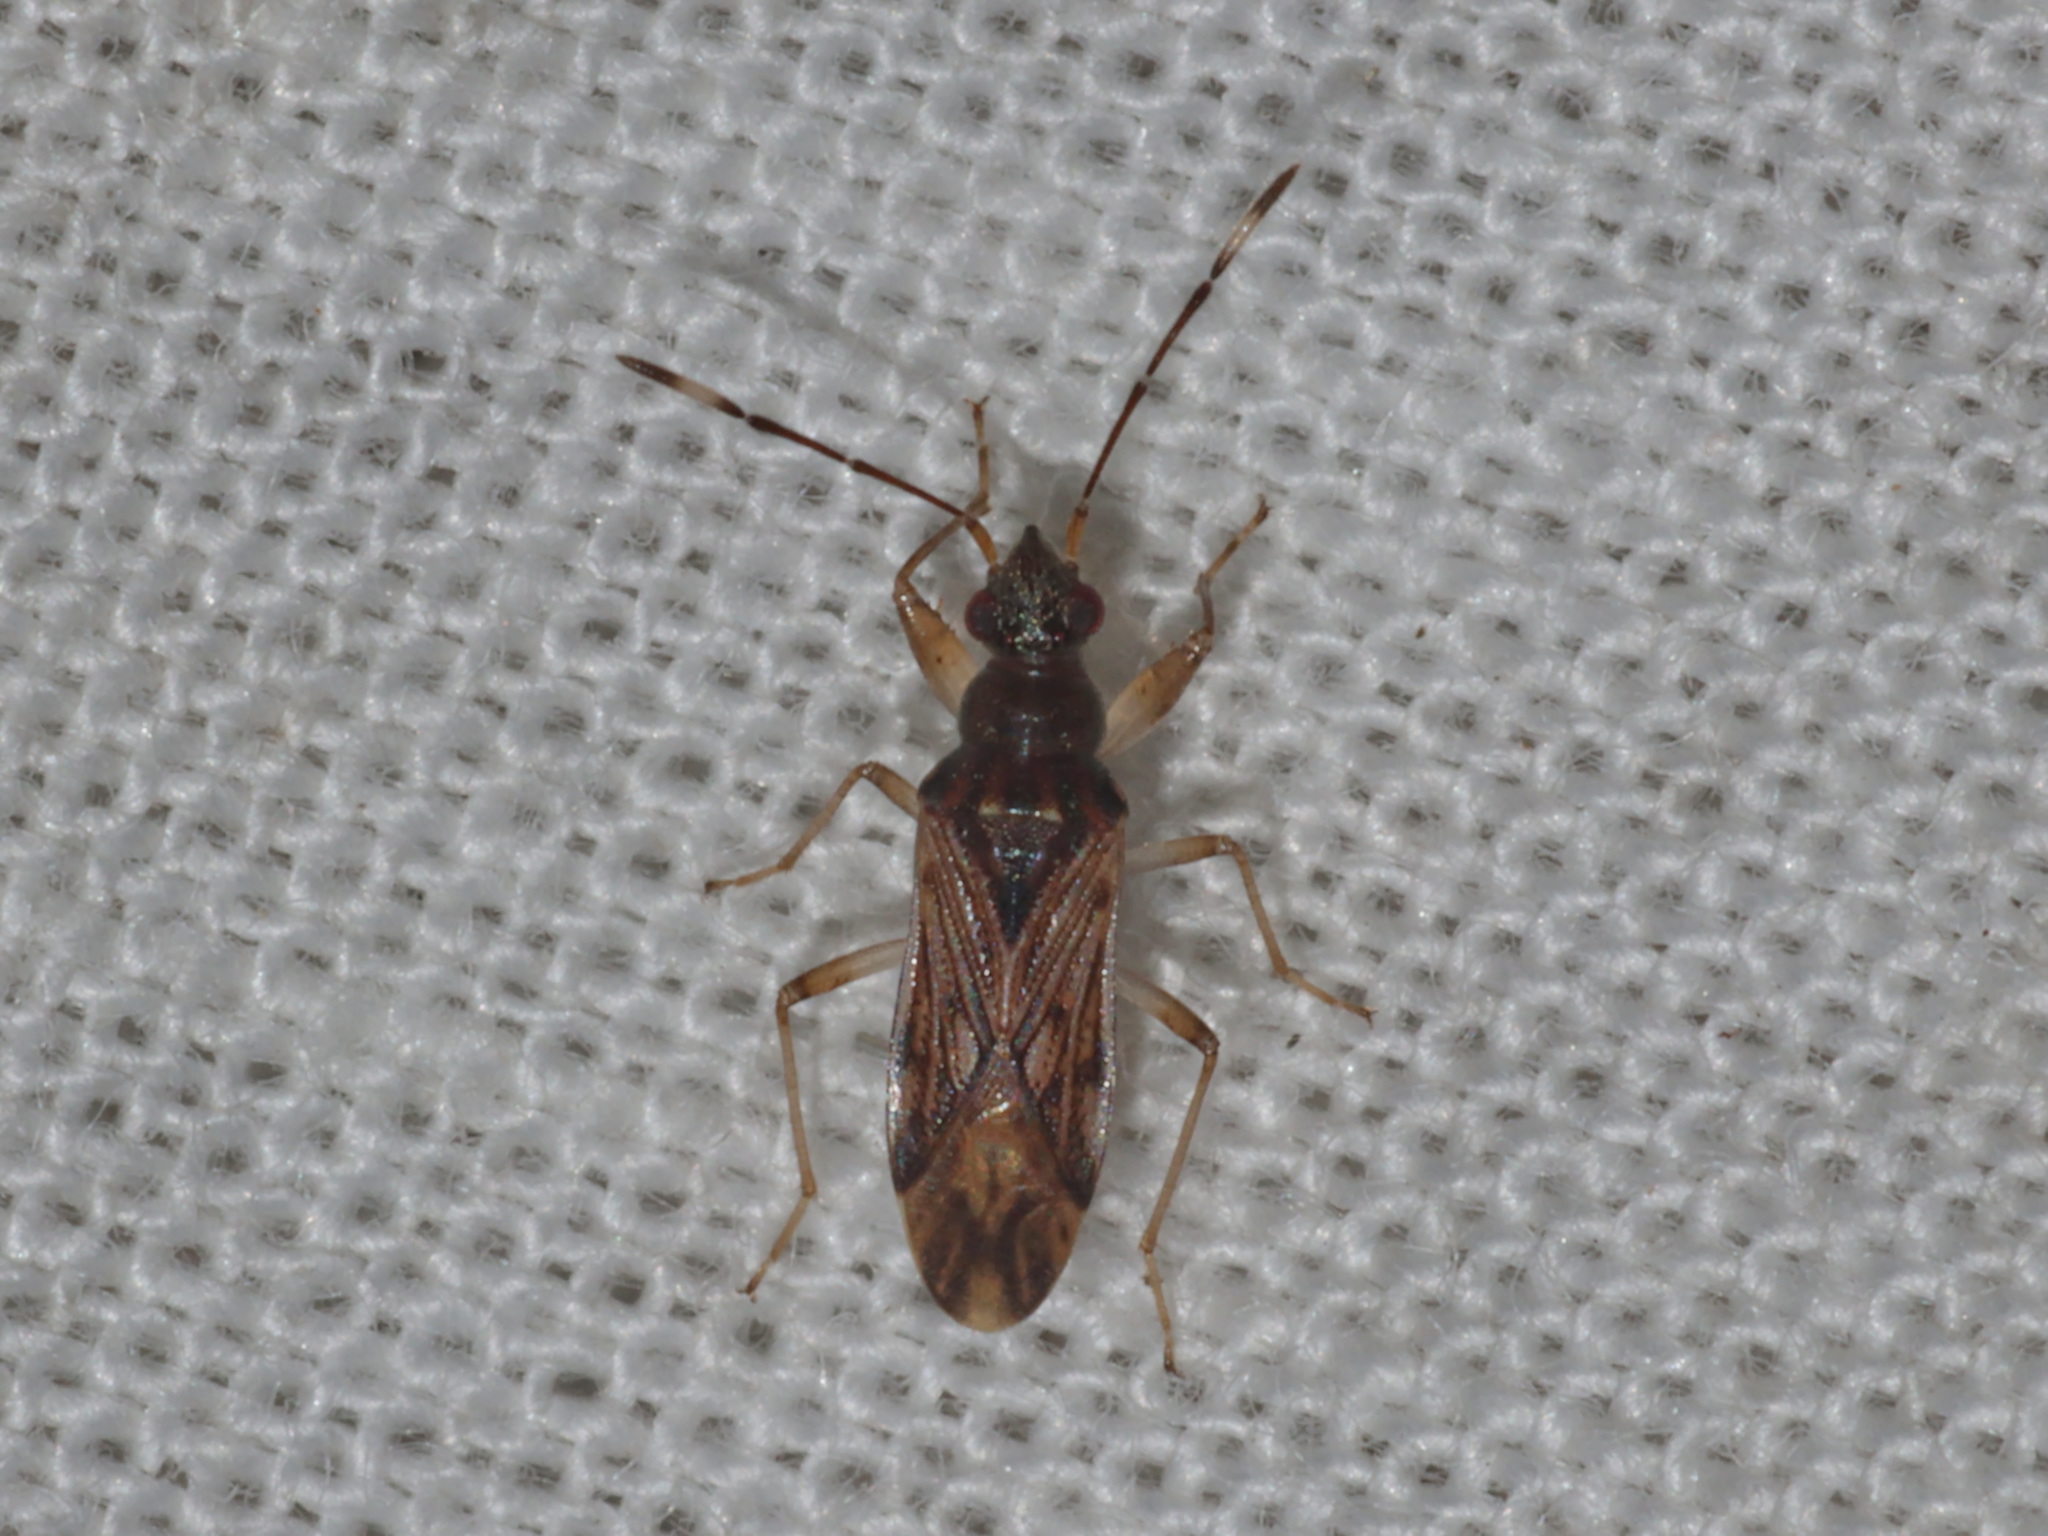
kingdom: Animalia
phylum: Arthropoda
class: Insecta
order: Hemiptera
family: Rhyparochromidae
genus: Pamerarma
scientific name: Pamerarma ventralis
